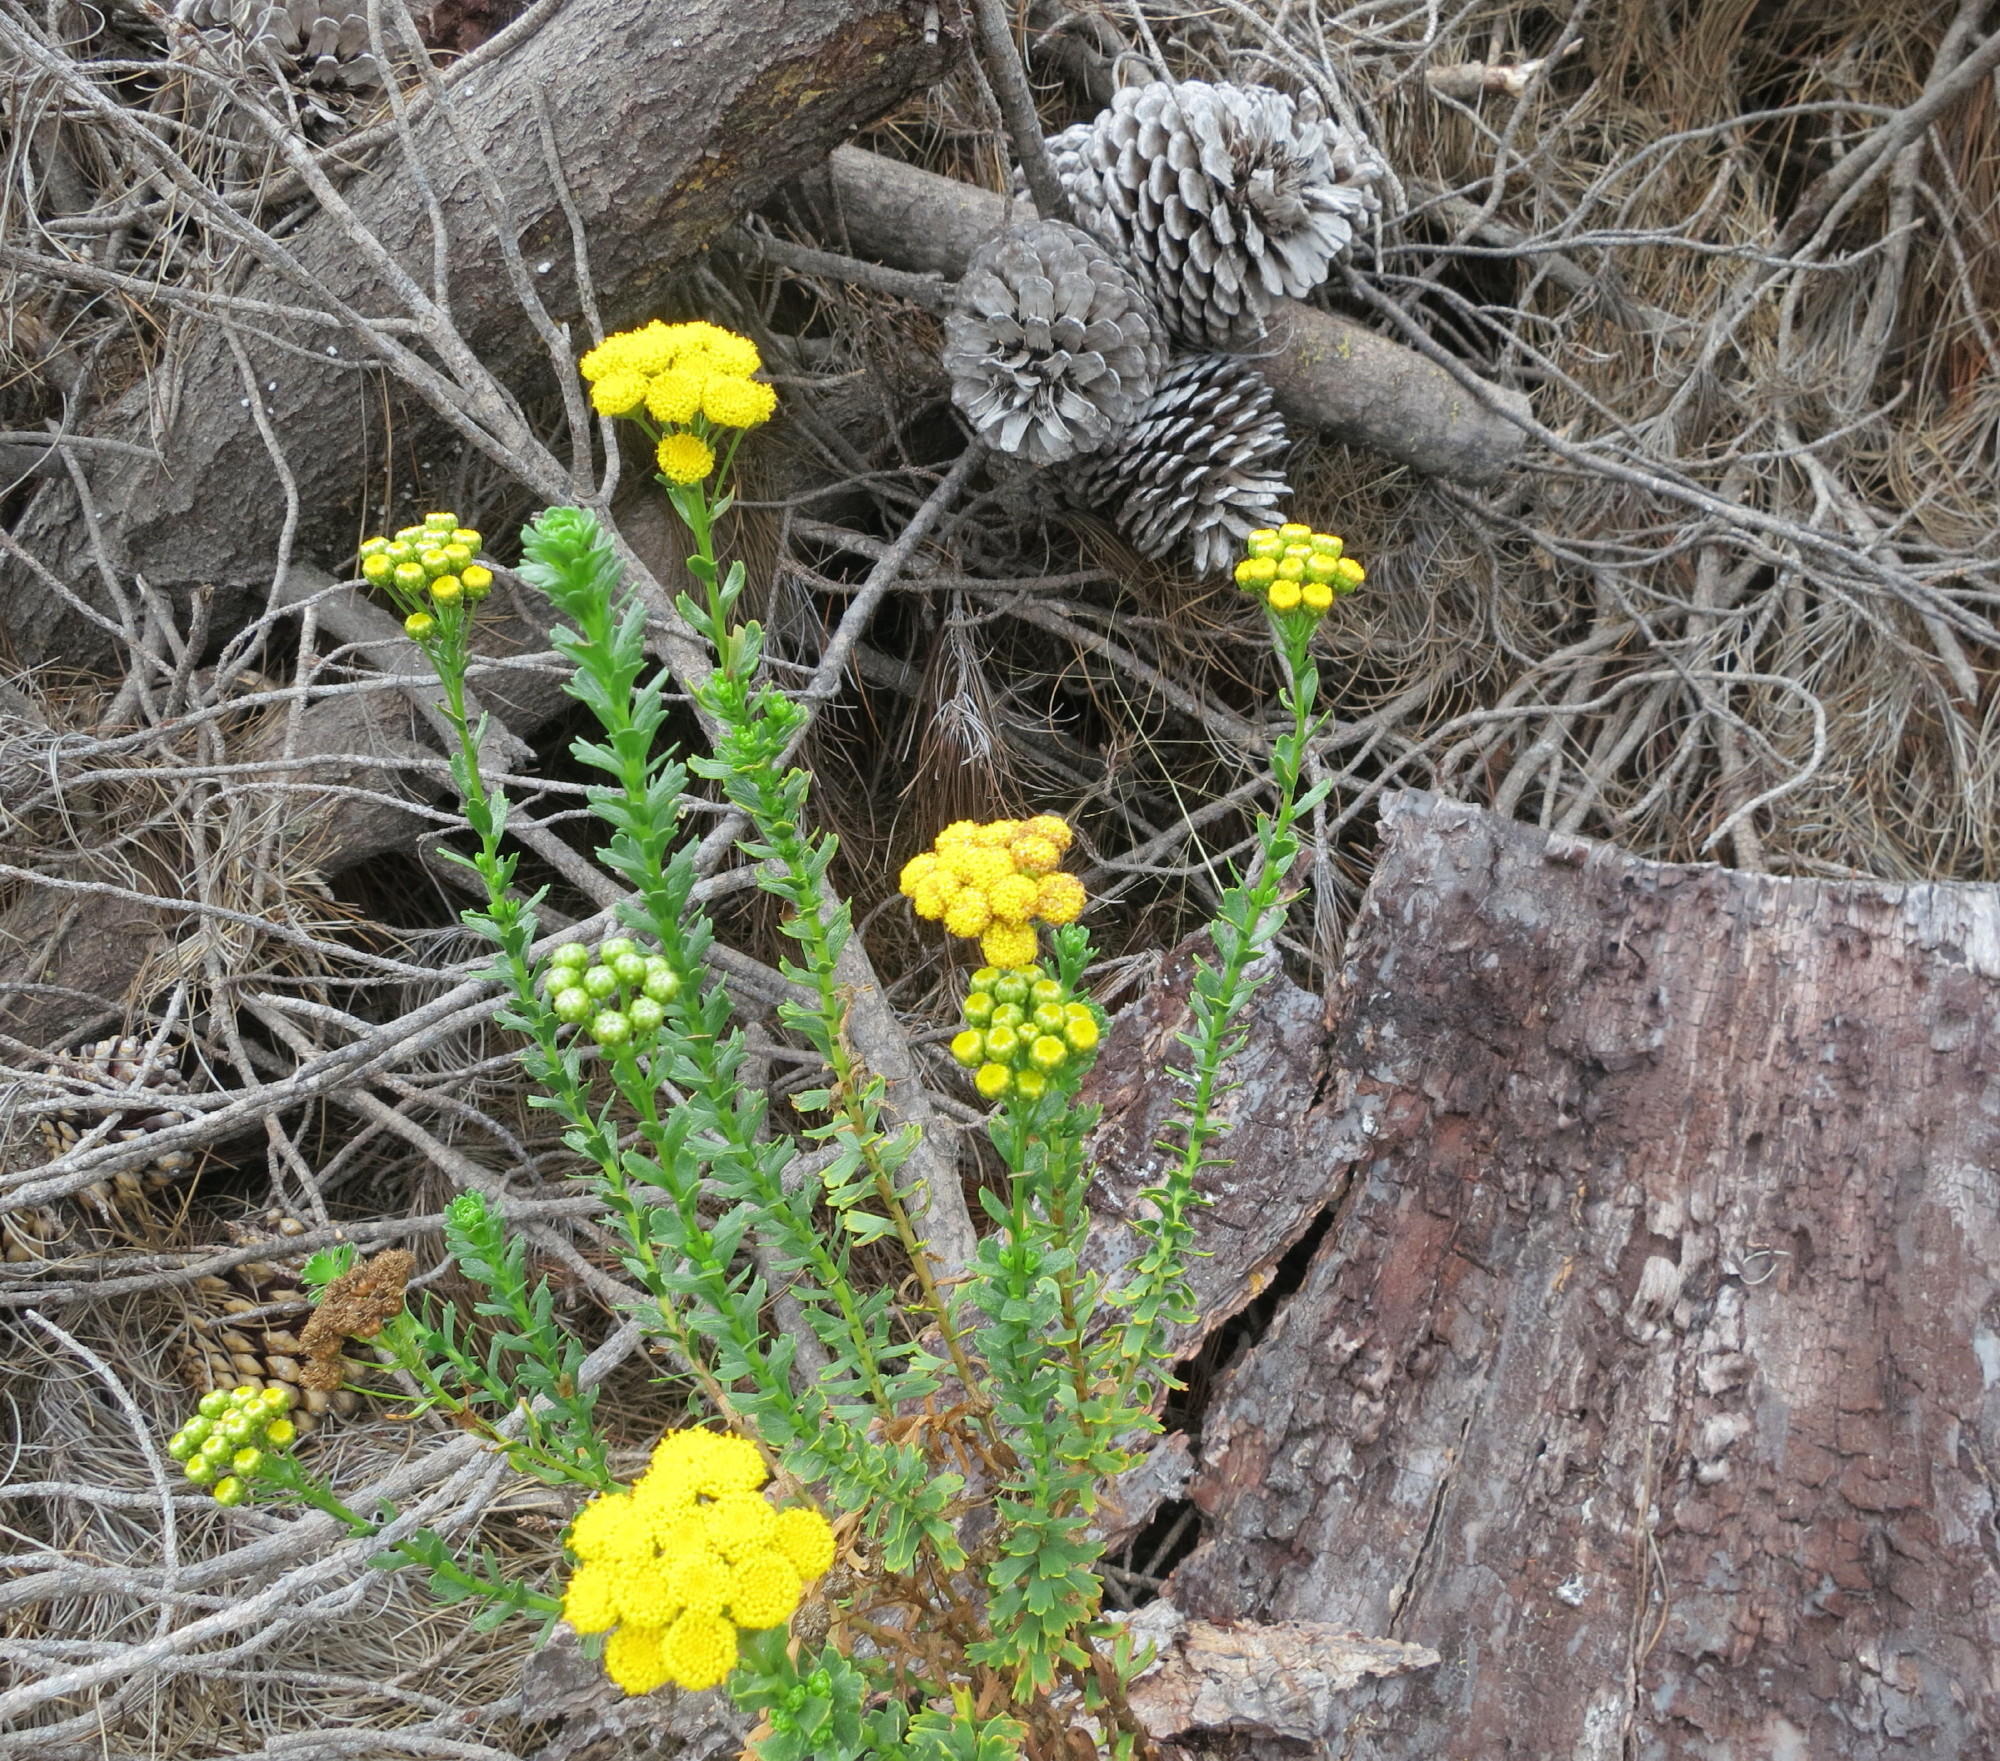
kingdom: Plantae
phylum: Tracheophyta
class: Magnoliopsida
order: Asterales
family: Asteraceae
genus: Athanasia
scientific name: Athanasia trifurcata
